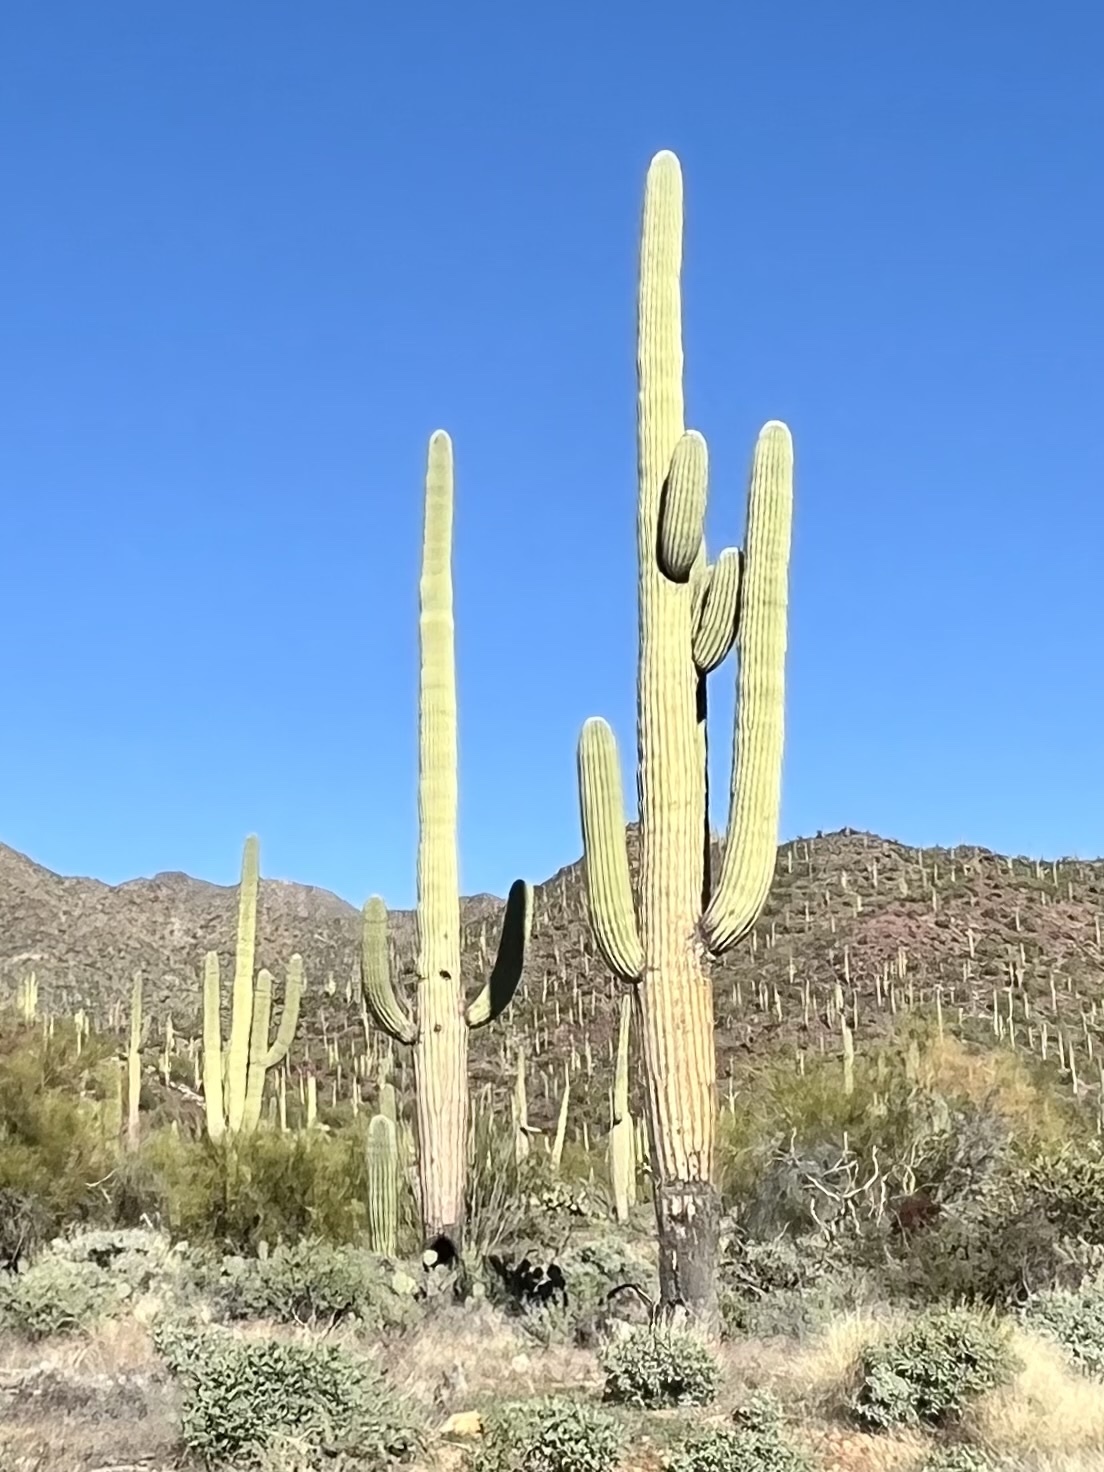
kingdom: Plantae
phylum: Tracheophyta
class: Magnoliopsida
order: Caryophyllales
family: Cactaceae
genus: Carnegiea
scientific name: Carnegiea gigantea
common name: Saguaro
